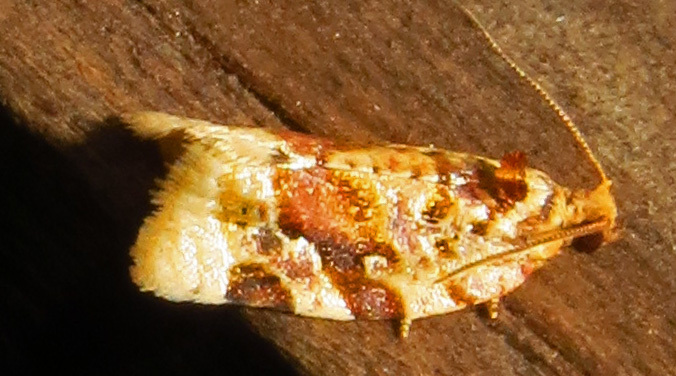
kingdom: Animalia
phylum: Arthropoda
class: Insecta
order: Lepidoptera
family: Tortricidae
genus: Argyrotaenia
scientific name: Argyrotaenia velutinana
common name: Red-banded leafroller moth
